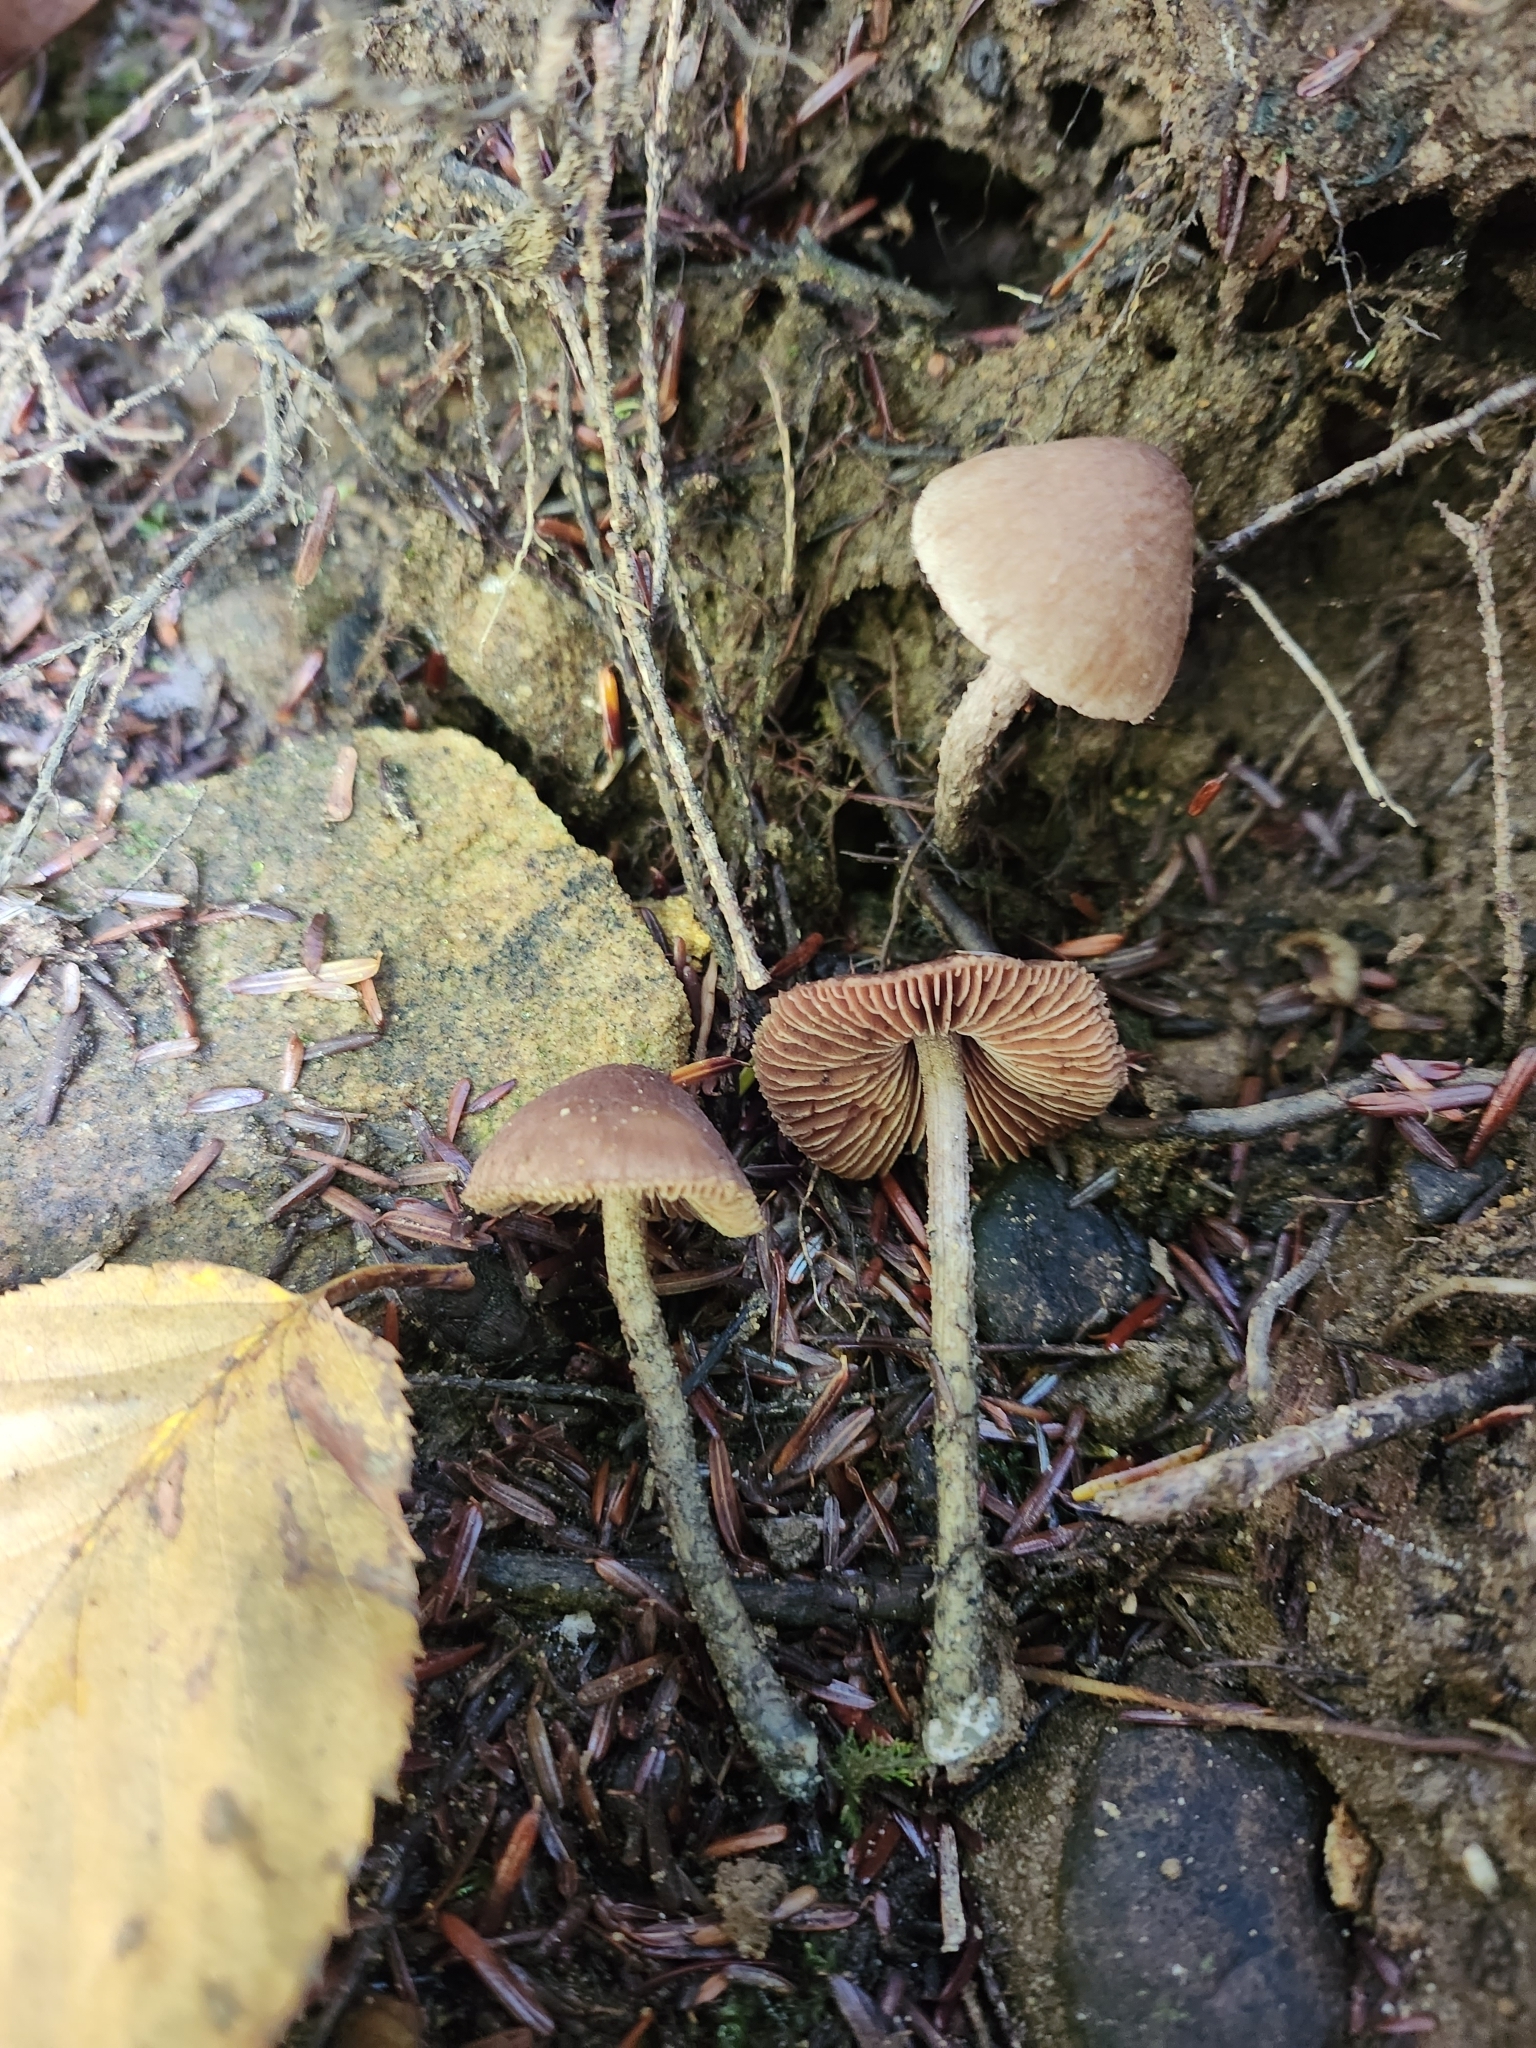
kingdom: Fungi
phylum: Basidiomycota
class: Agaricomycetes
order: Agaricales
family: Inocybaceae
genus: Inosperma
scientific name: Inosperma calamistratum
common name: Greenfoot fibrecap
